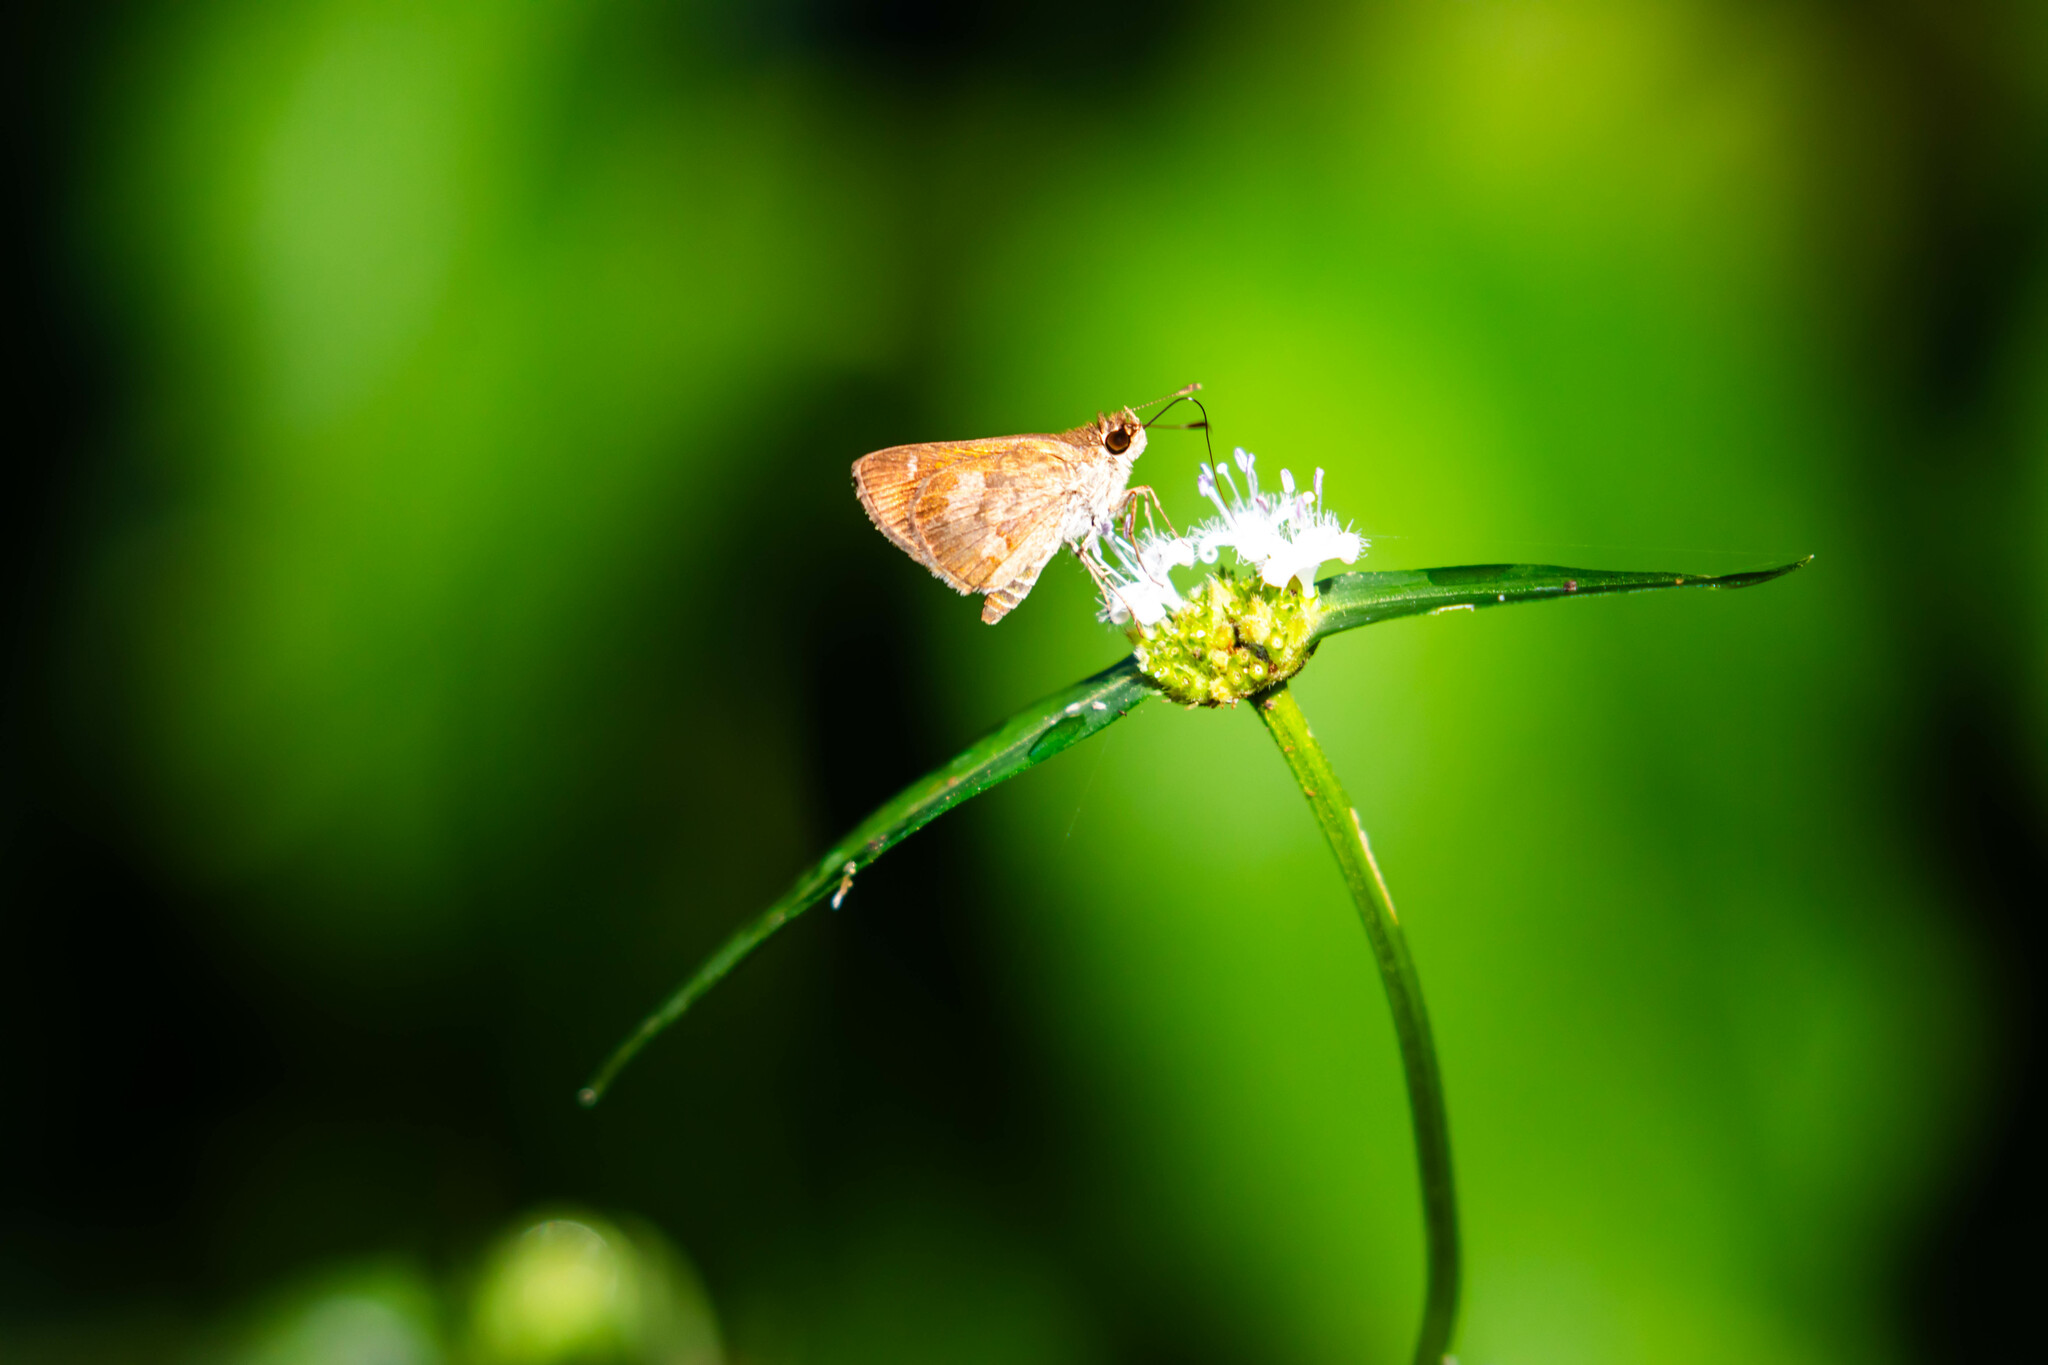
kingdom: Animalia
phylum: Arthropoda
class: Insecta
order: Lepidoptera
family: Hesperiidae
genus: Callimormus
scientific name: Callimormus saturnus
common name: Saturnus skipper
